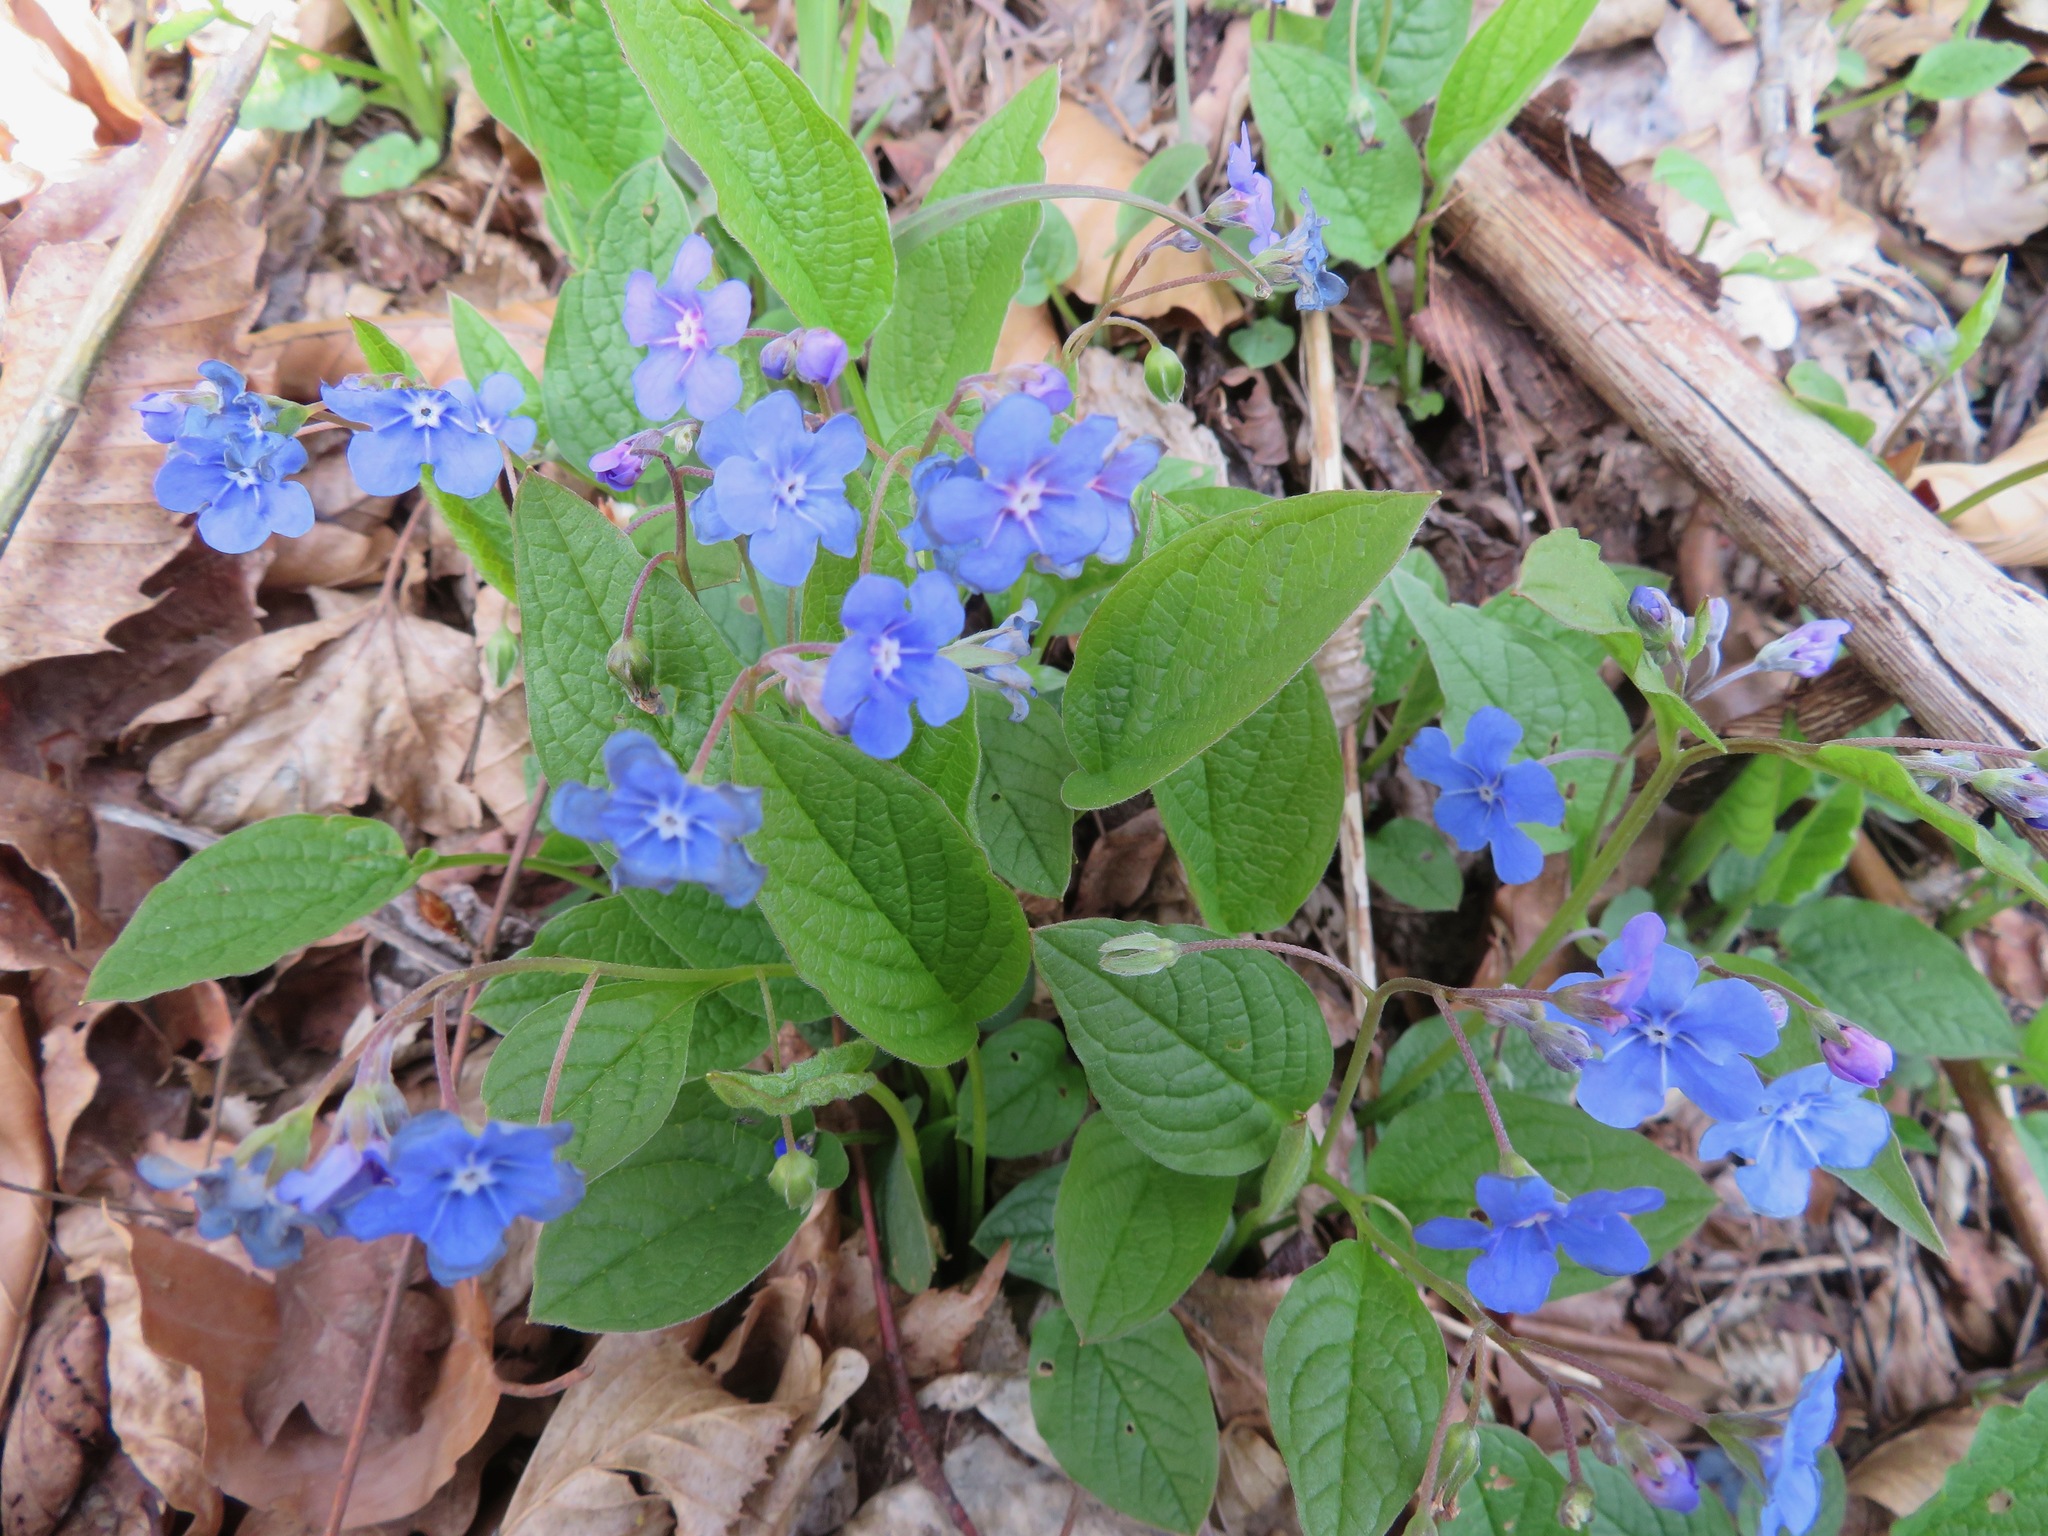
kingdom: Plantae
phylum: Tracheophyta
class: Magnoliopsida
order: Boraginales
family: Boraginaceae
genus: Omphalodes
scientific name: Omphalodes verna
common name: Blue-eyed-mary
